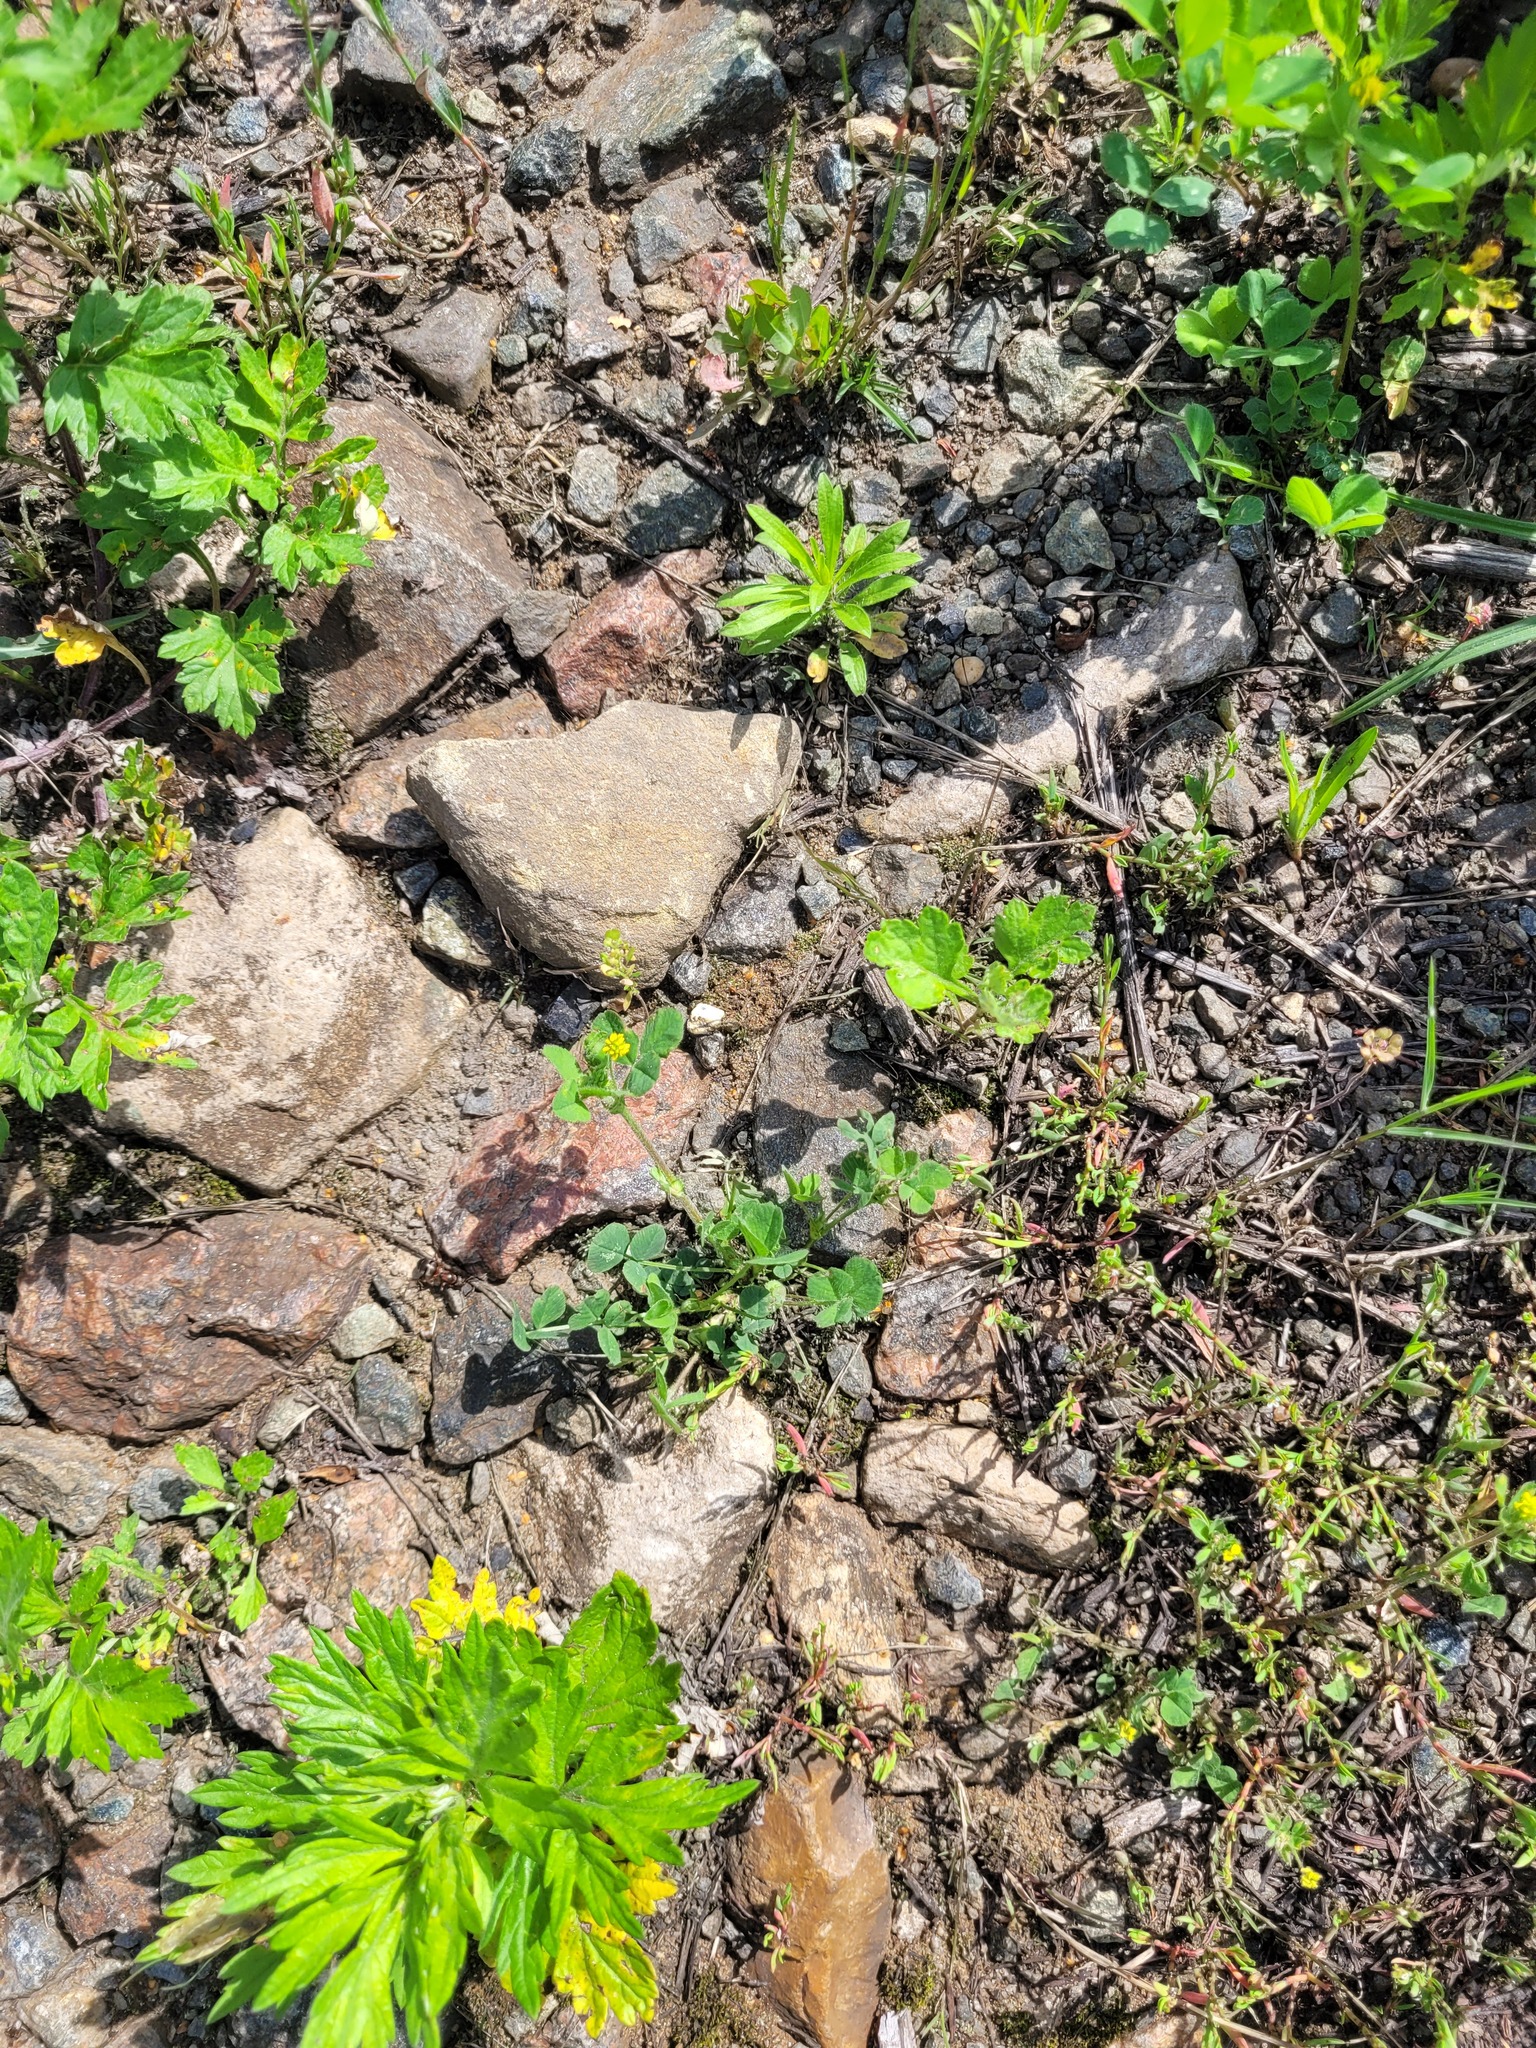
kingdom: Plantae
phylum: Tracheophyta
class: Magnoliopsida
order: Fabales
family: Fabaceae
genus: Medicago
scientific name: Medicago lupulina
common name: Black medick
